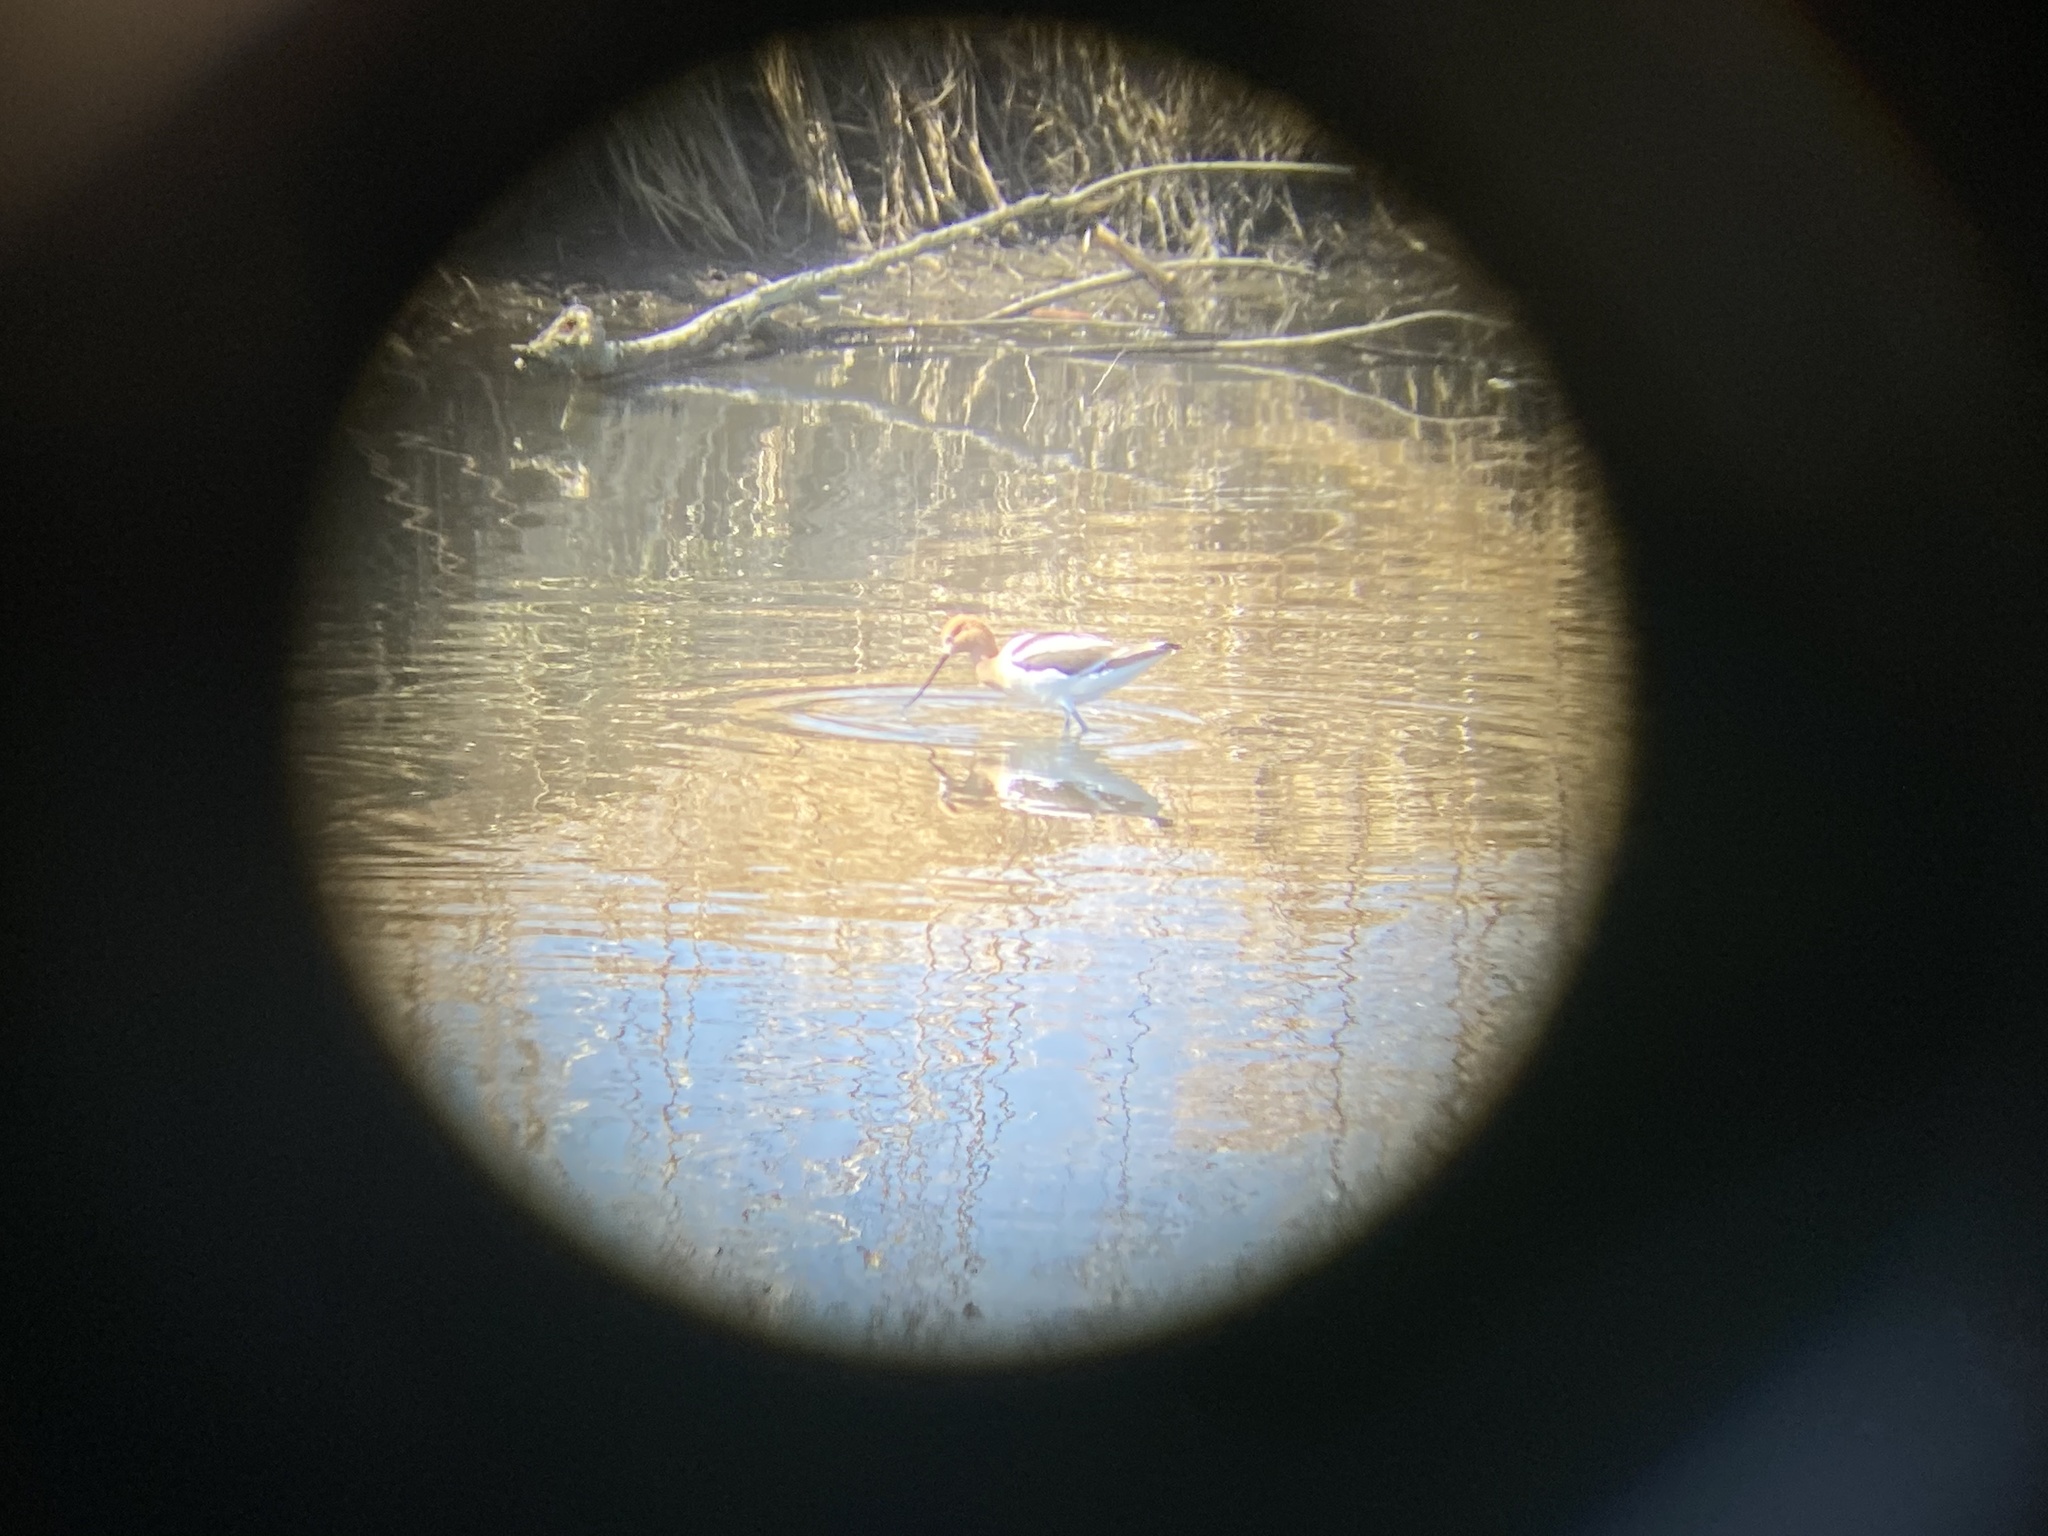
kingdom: Animalia
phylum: Chordata
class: Aves
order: Charadriiformes
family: Recurvirostridae
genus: Recurvirostra
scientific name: Recurvirostra americana
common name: American avocet
